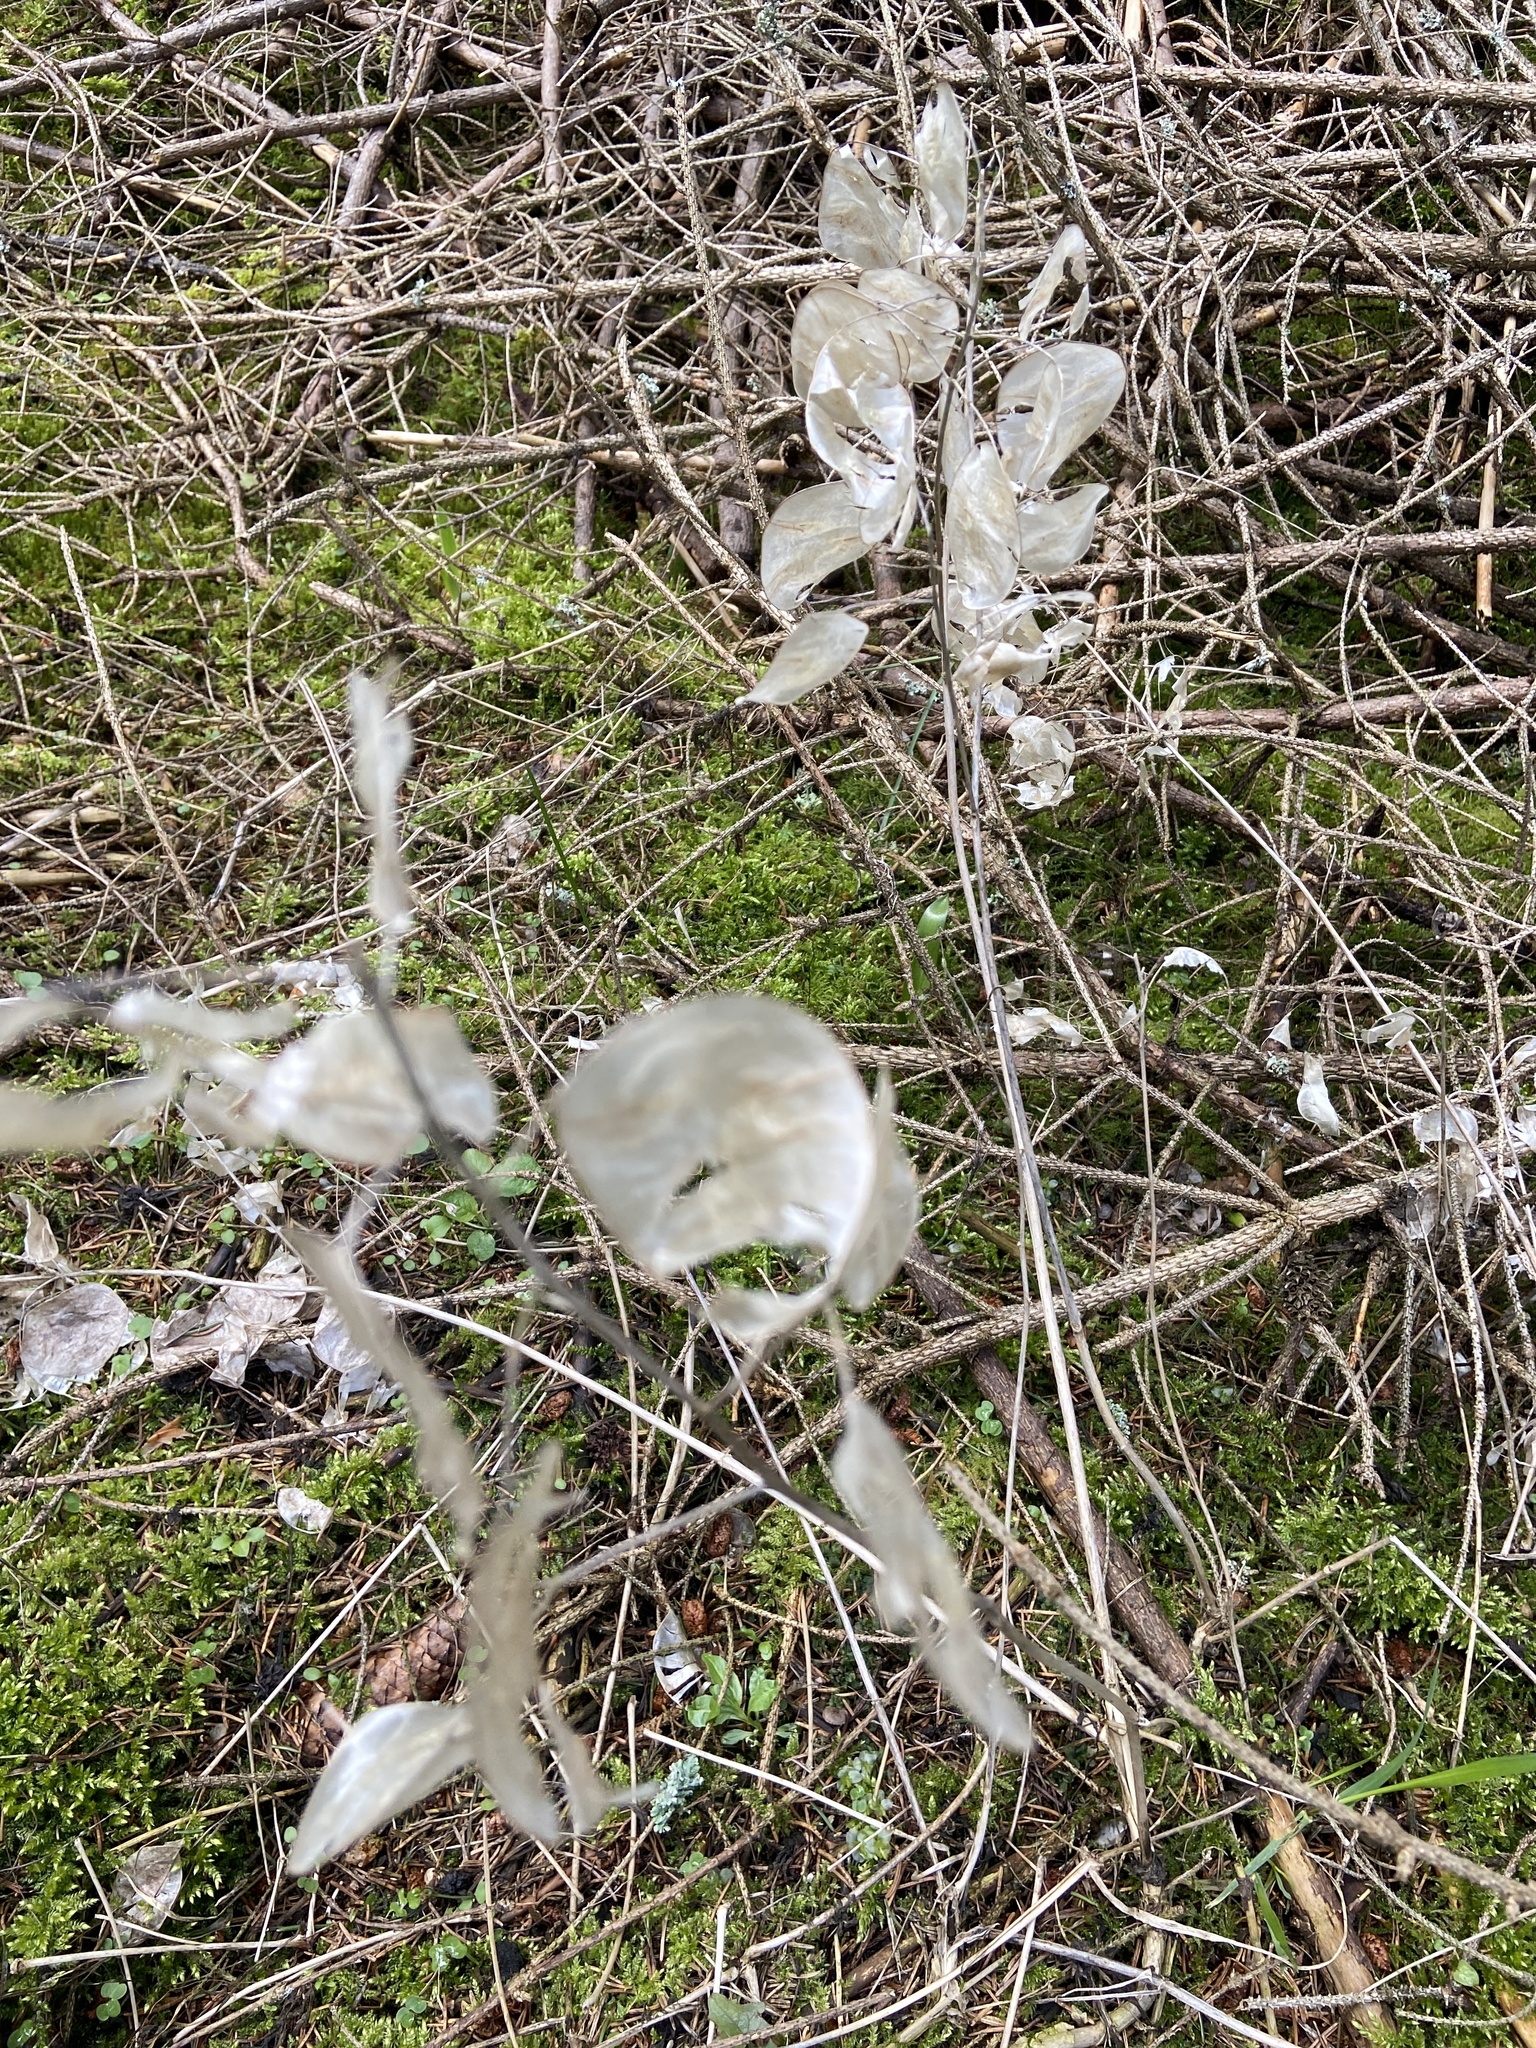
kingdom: Plantae
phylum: Tracheophyta
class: Magnoliopsida
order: Brassicales
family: Brassicaceae
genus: Lunaria
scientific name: Lunaria annua
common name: Honesty
